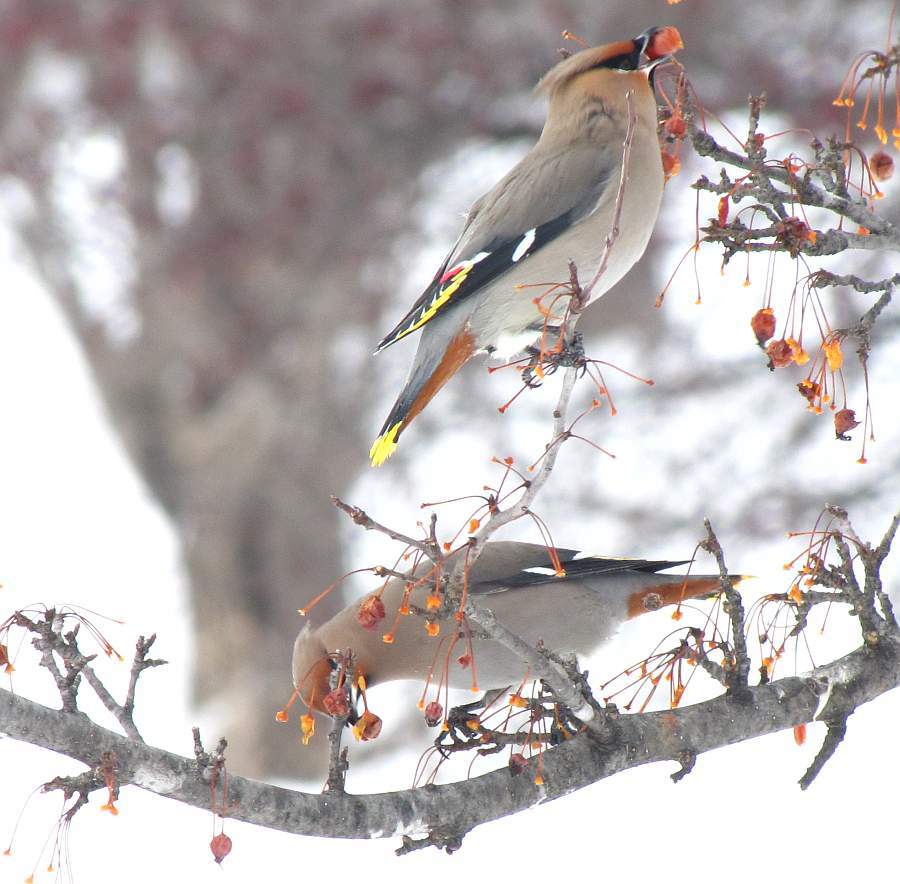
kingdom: Animalia
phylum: Chordata
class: Aves
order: Passeriformes
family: Bombycillidae
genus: Bombycilla
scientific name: Bombycilla garrulus
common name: Bohemian waxwing
